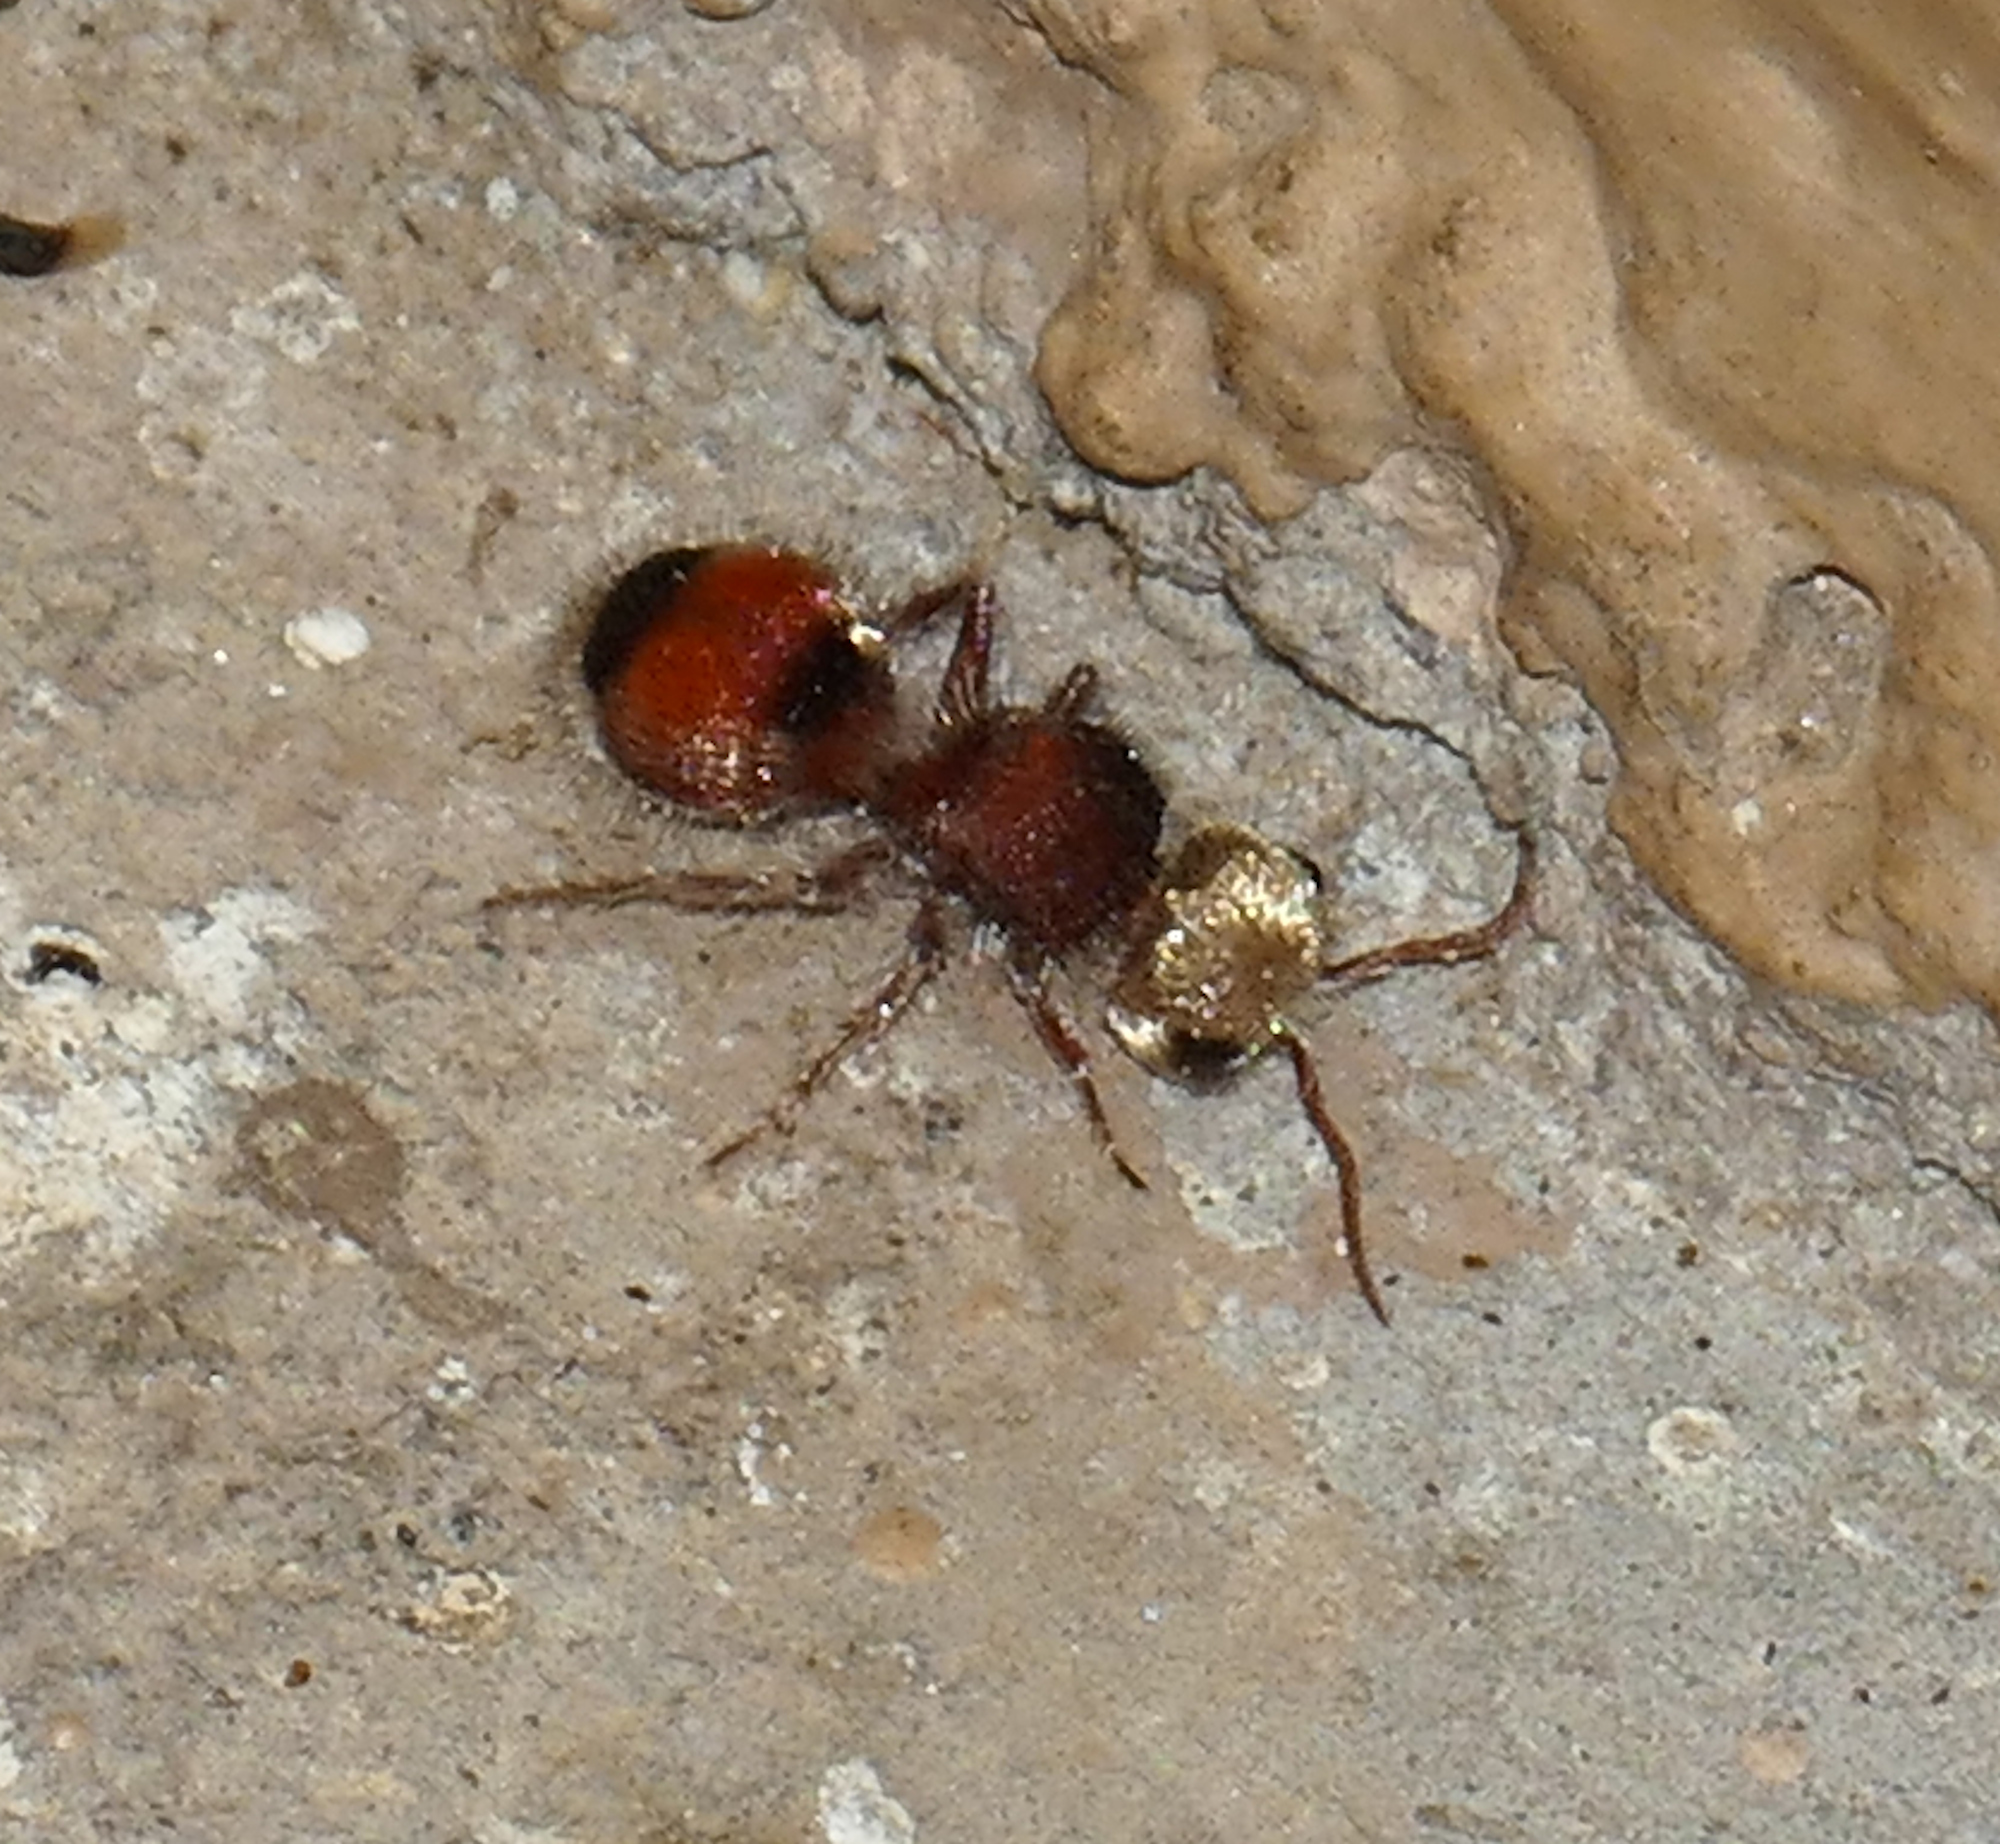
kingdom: Animalia
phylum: Arthropoda
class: Insecta
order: Hymenoptera
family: Mutillidae
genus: Pseudomethoca
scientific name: Pseudomethoca
